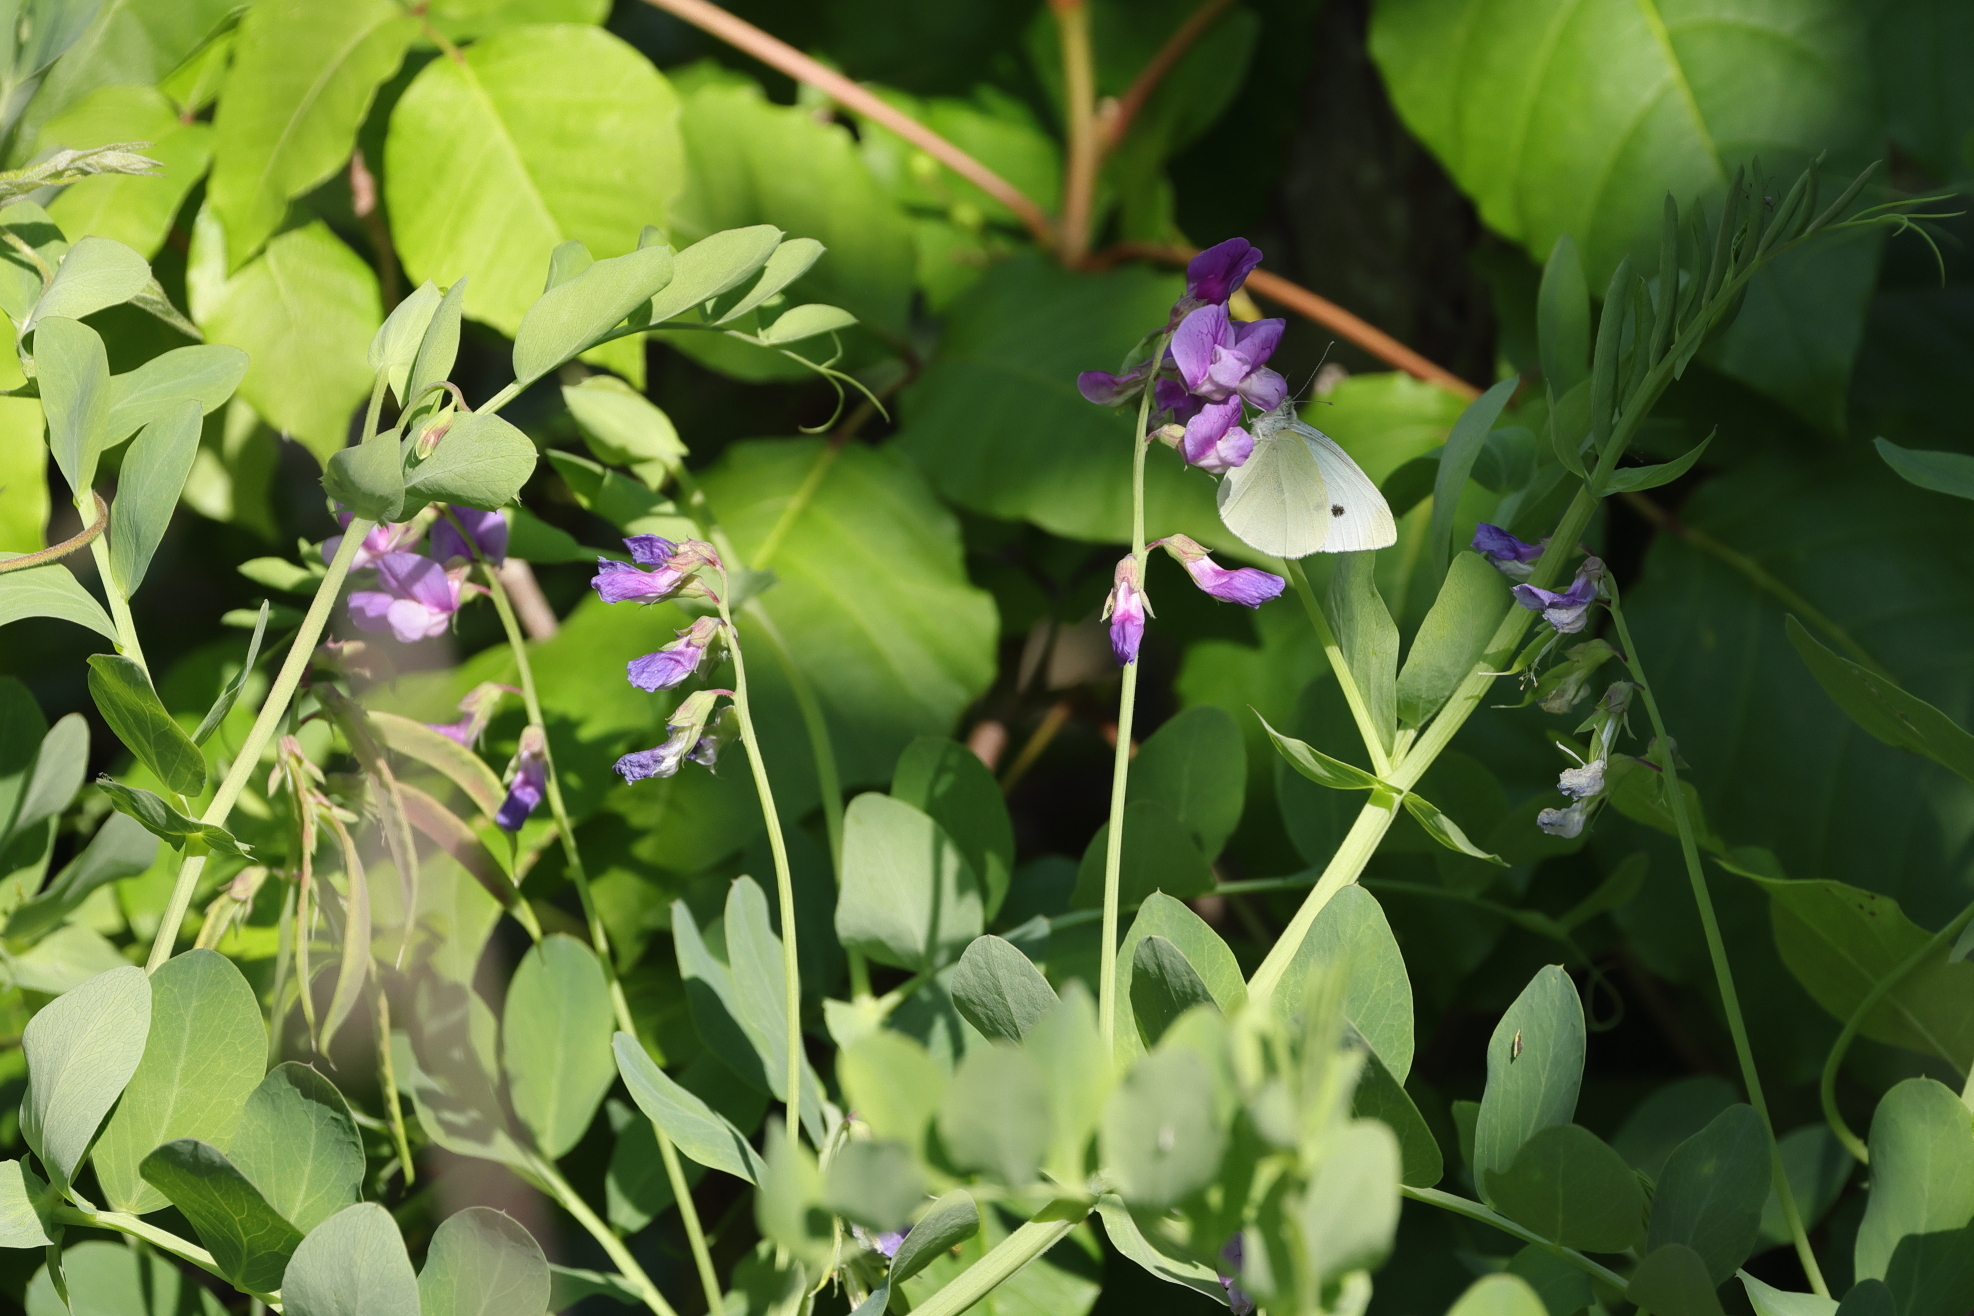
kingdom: Animalia
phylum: Arthropoda
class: Insecta
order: Lepidoptera
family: Pieridae
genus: Pieris
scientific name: Pieris rapae
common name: Small white
